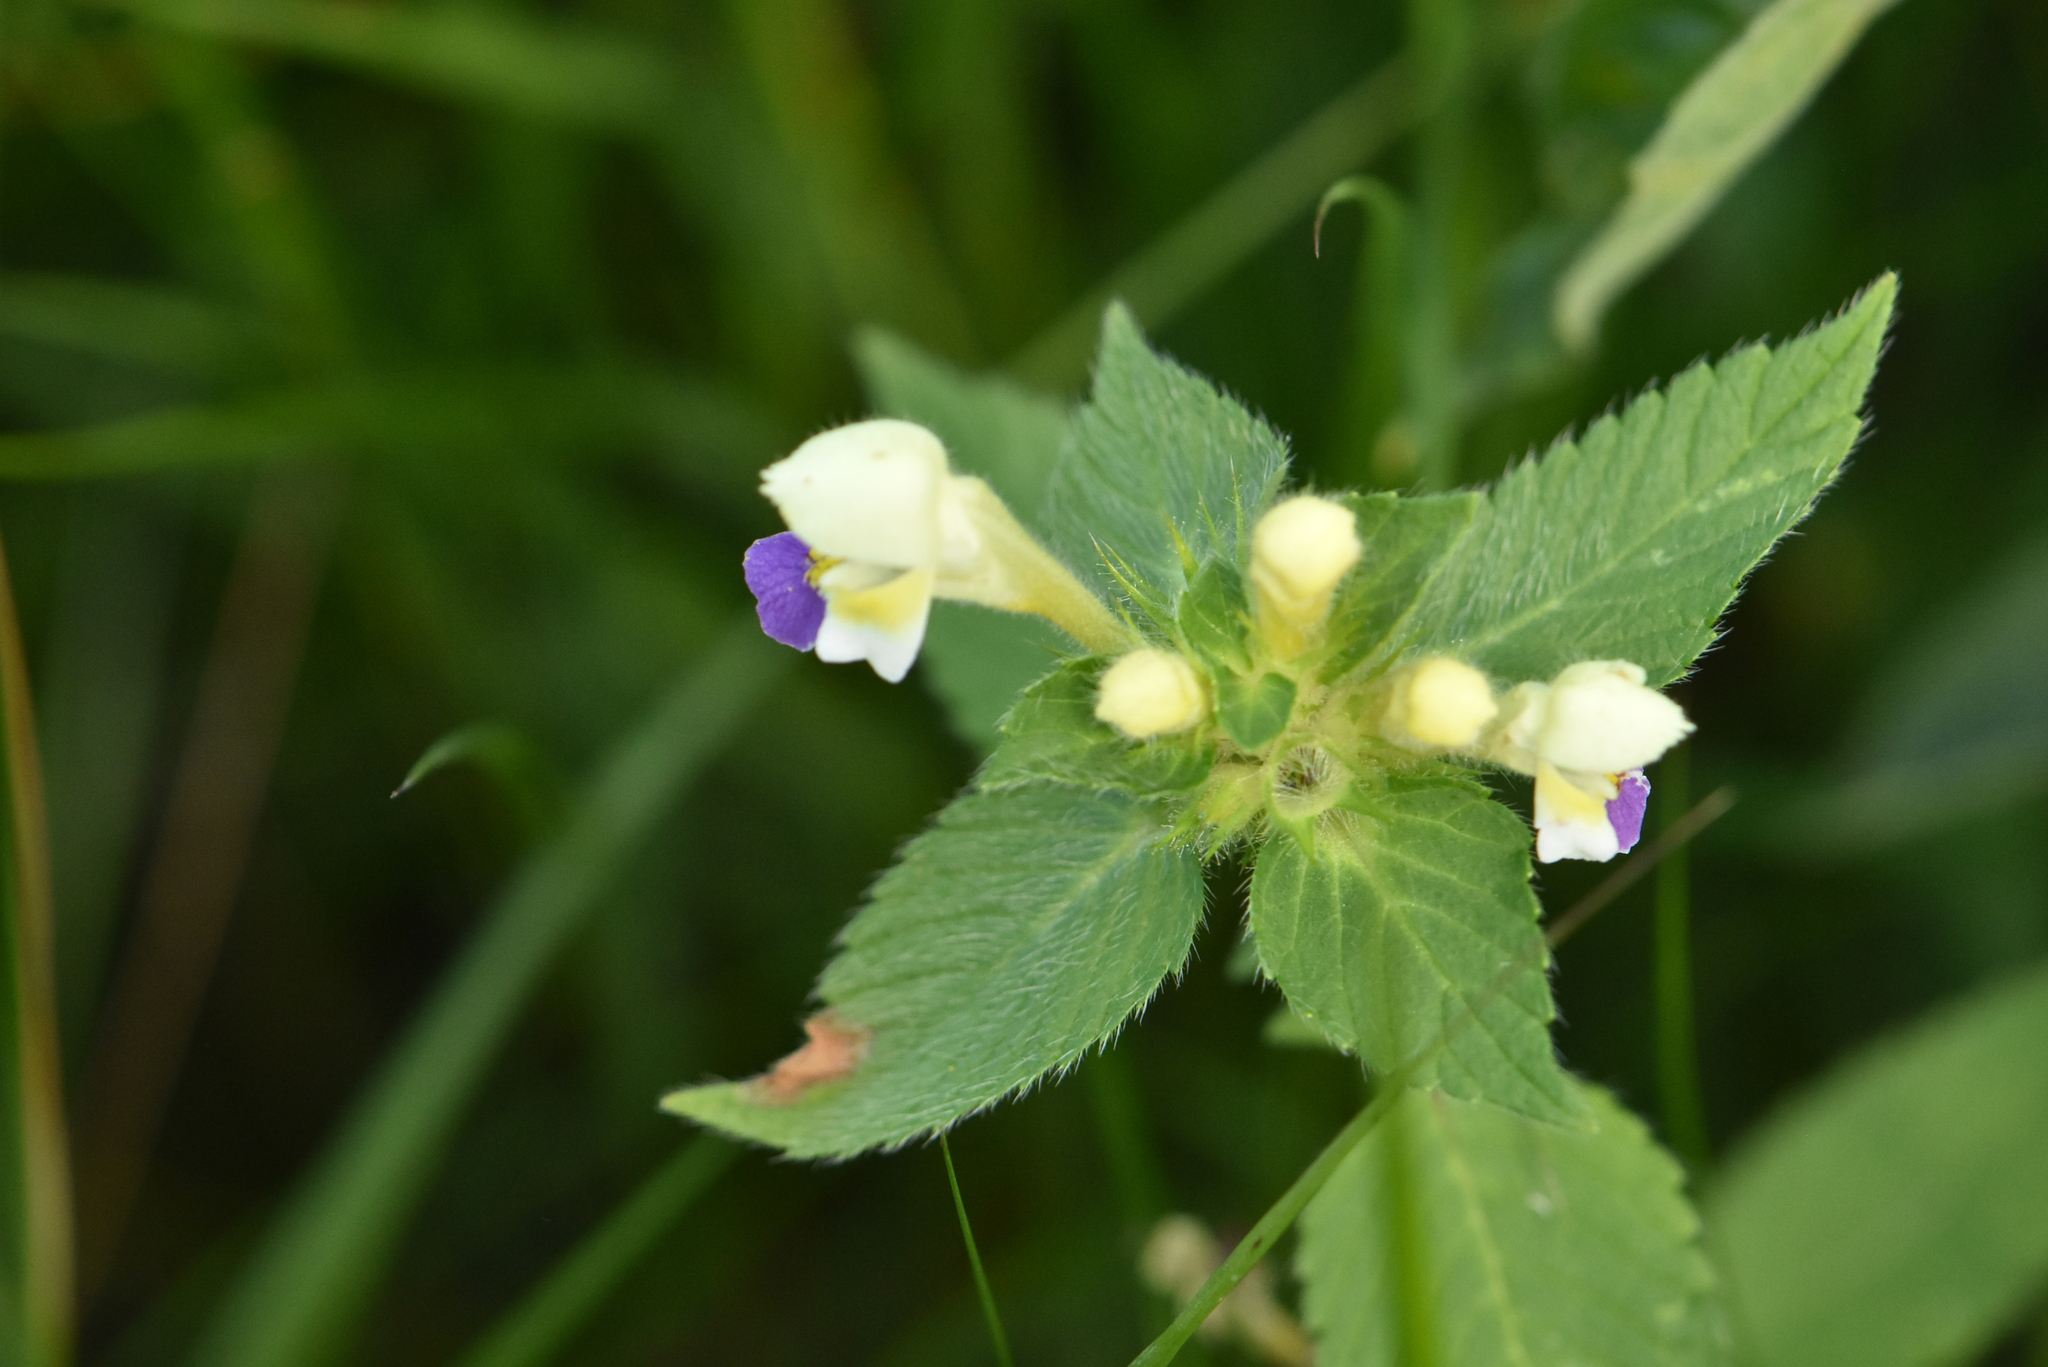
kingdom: Plantae
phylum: Tracheophyta
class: Magnoliopsida
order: Lamiales
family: Lamiaceae
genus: Galeopsis
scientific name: Galeopsis speciosa
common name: Large-flowered hemp-nettle
